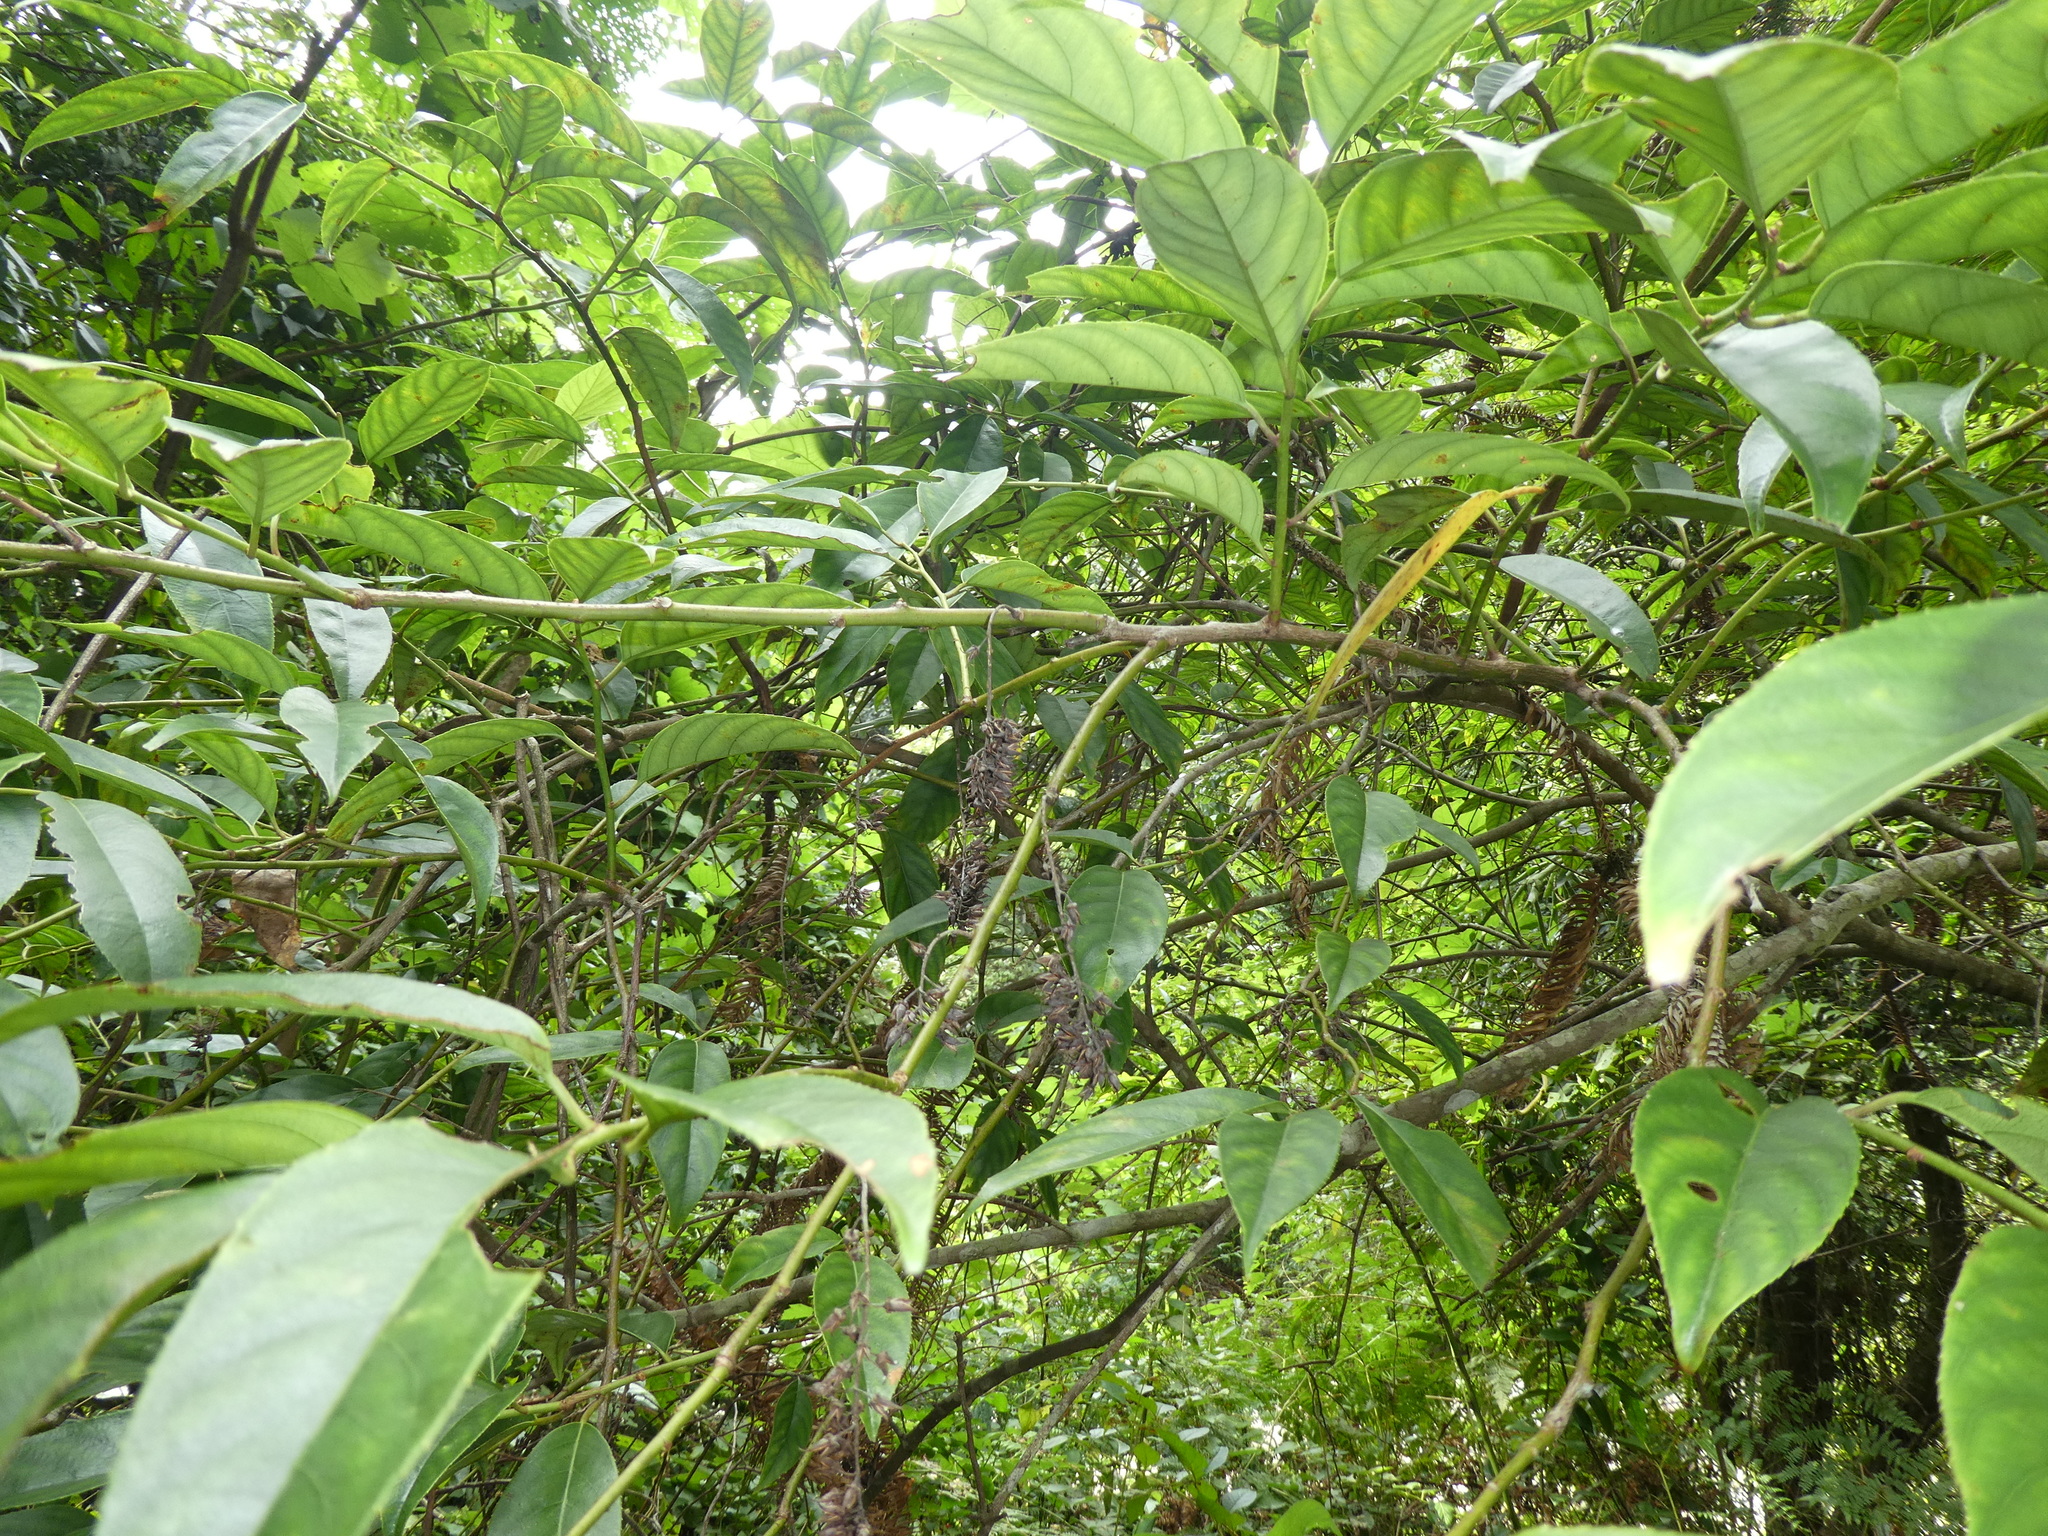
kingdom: Plantae
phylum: Tracheophyta
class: Magnoliopsida
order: Saxifragales
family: Iteaceae
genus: Itea
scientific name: Itea chinensis
